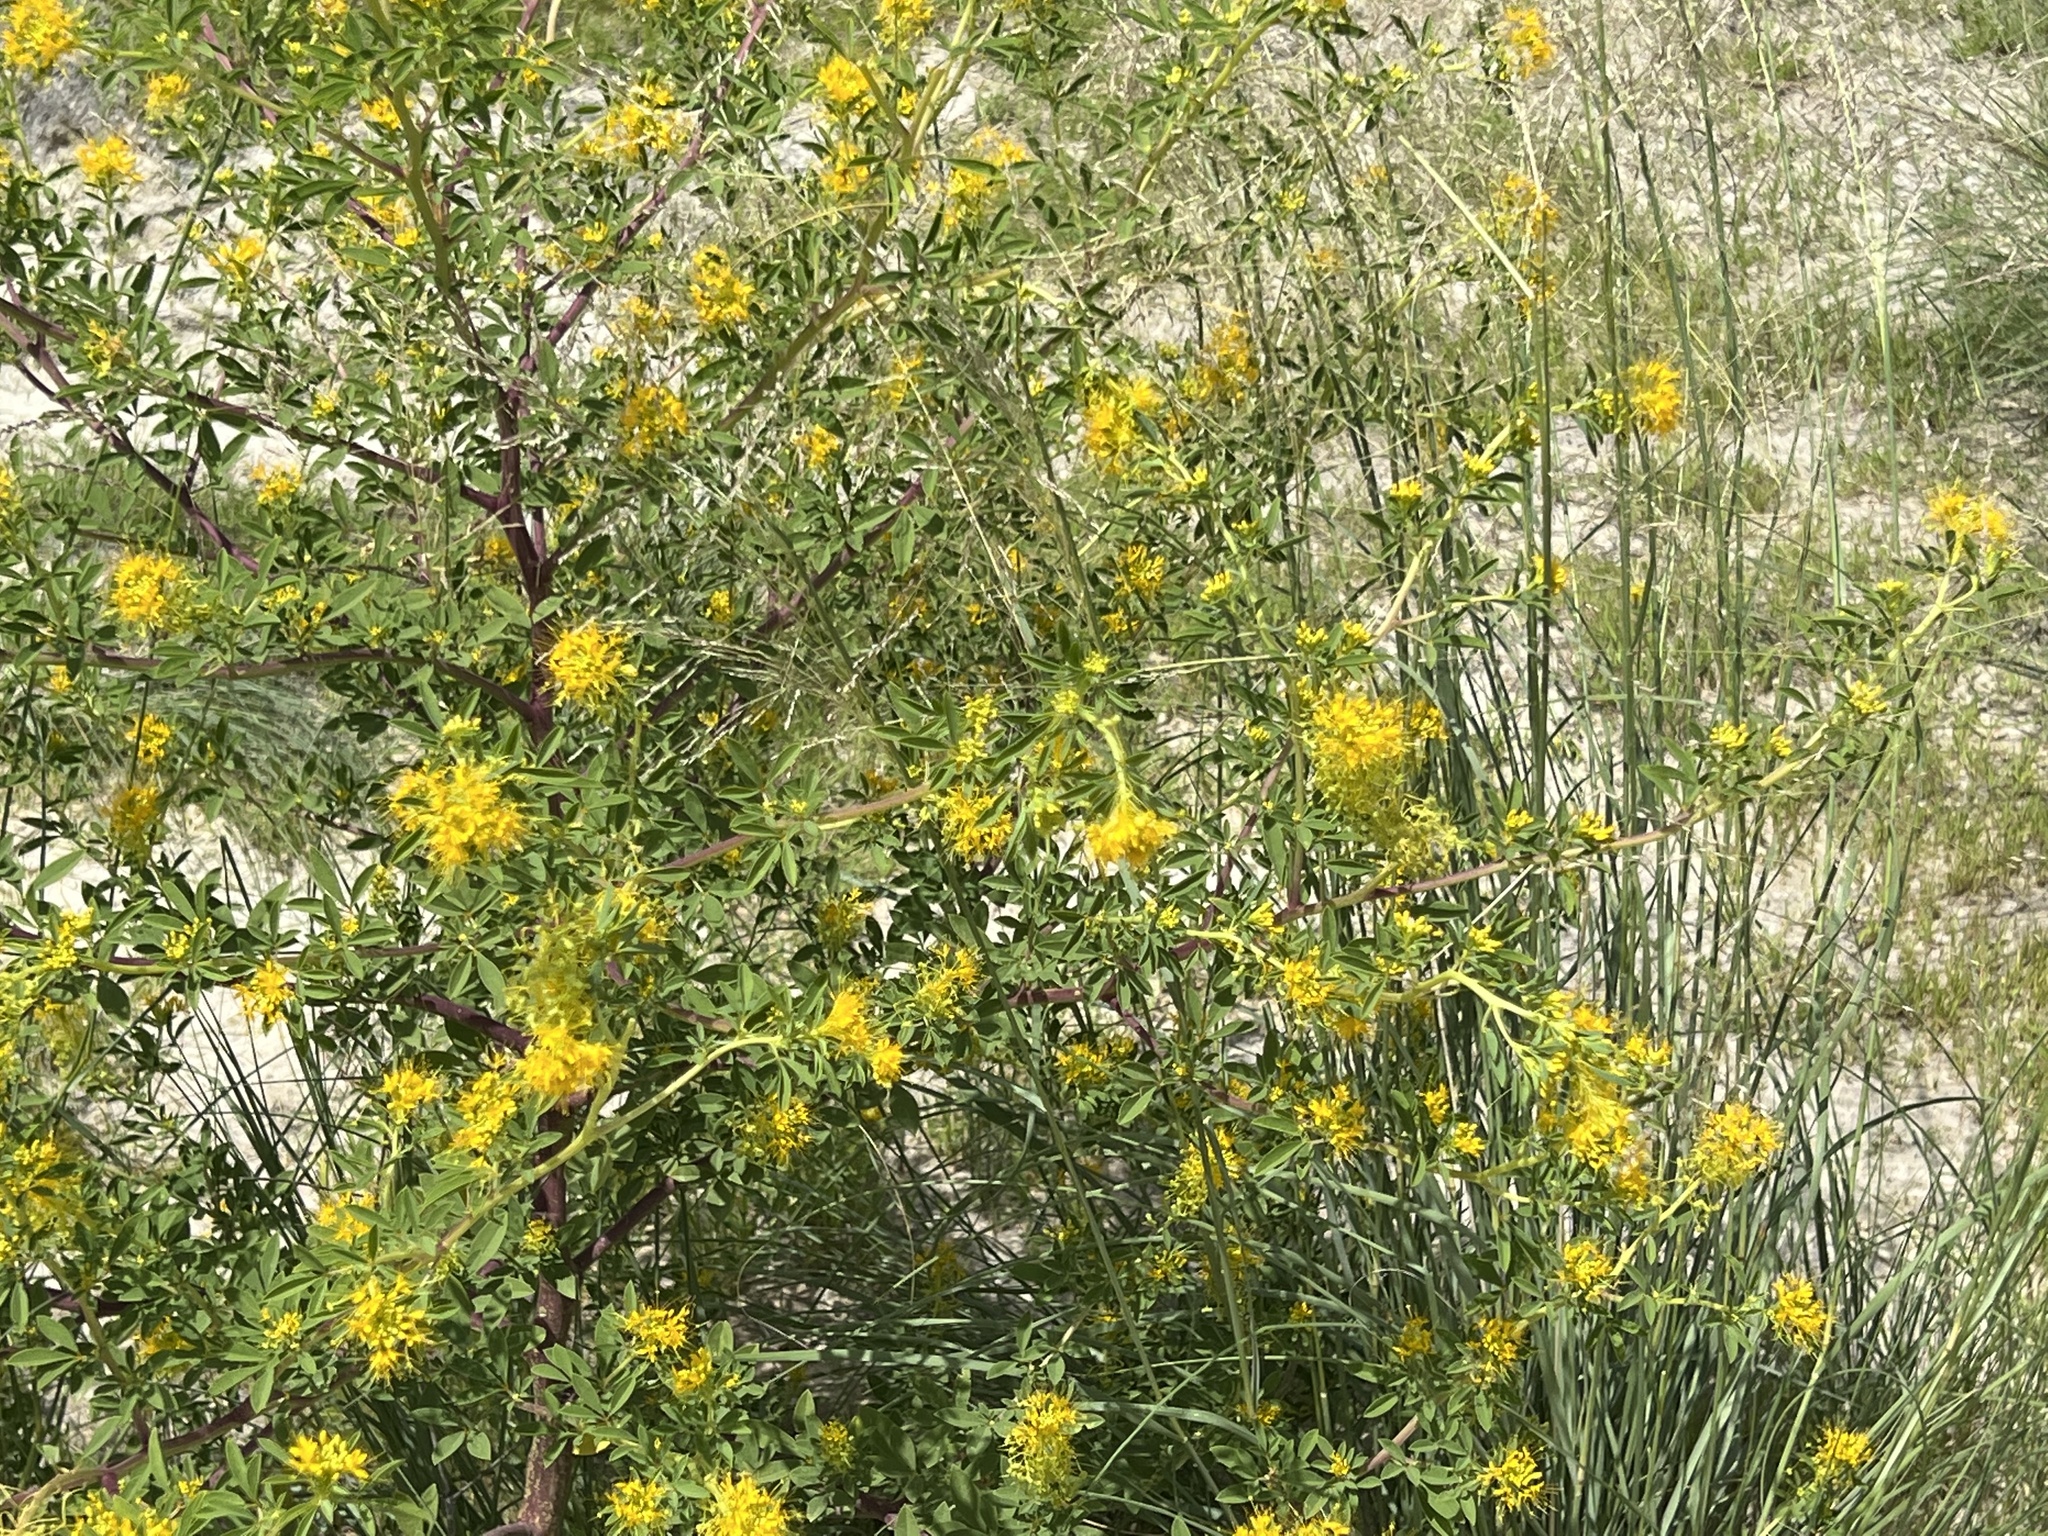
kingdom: Plantae
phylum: Tracheophyta
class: Magnoliopsida
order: Brassicales
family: Cleomaceae
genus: Cleomella
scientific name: Cleomella refracta
